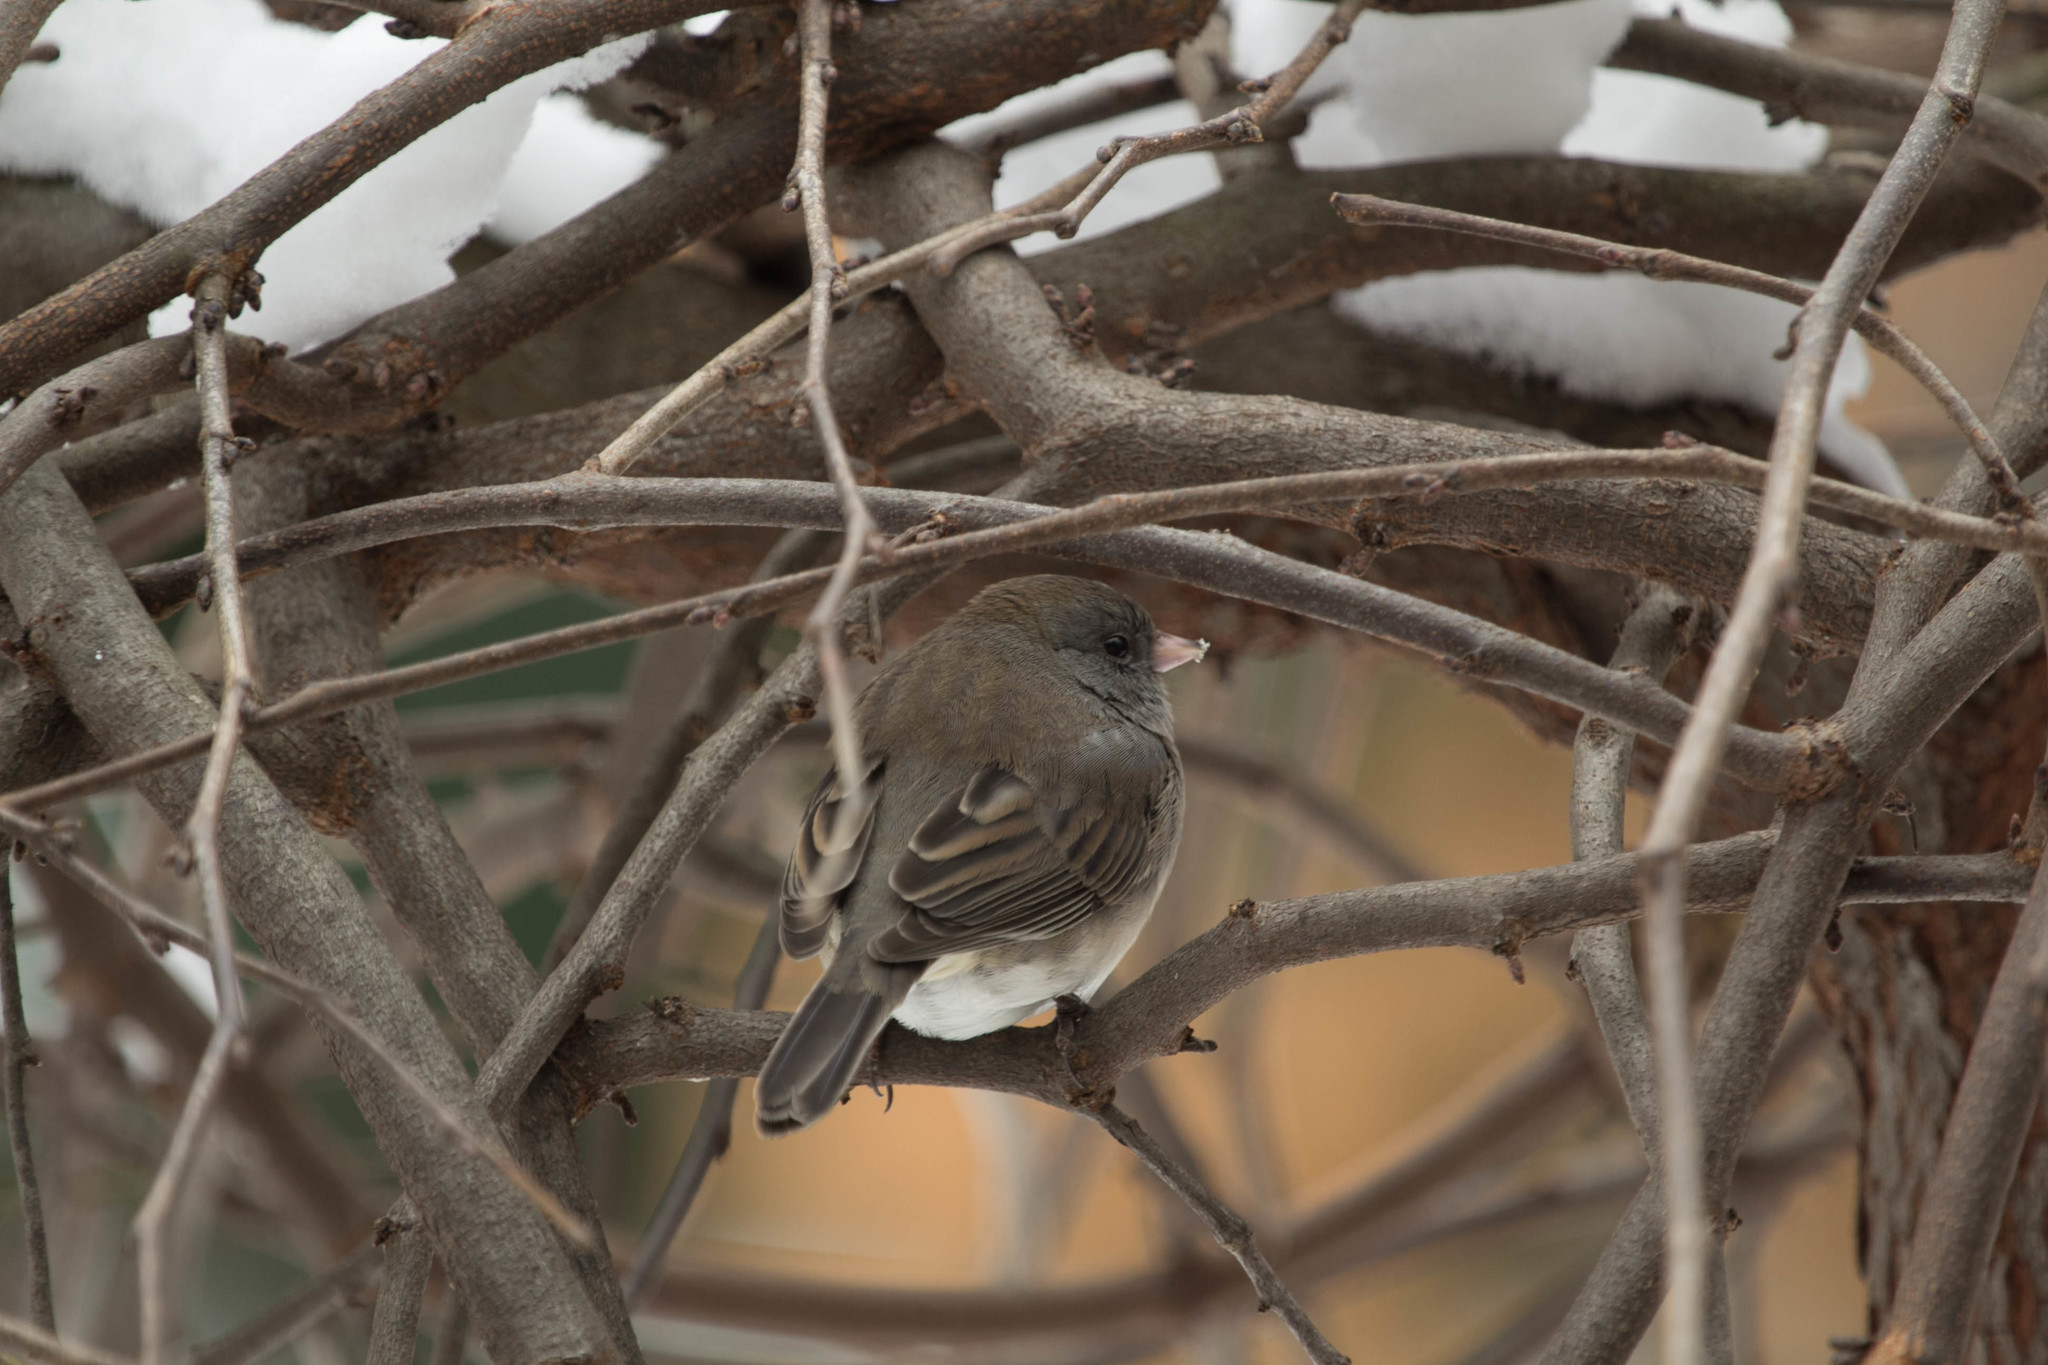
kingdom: Animalia
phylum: Chordata
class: Aves
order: Passeriformes
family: Passerellidae
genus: Junco
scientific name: Junco hyemalis
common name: Dark-eyed junco
